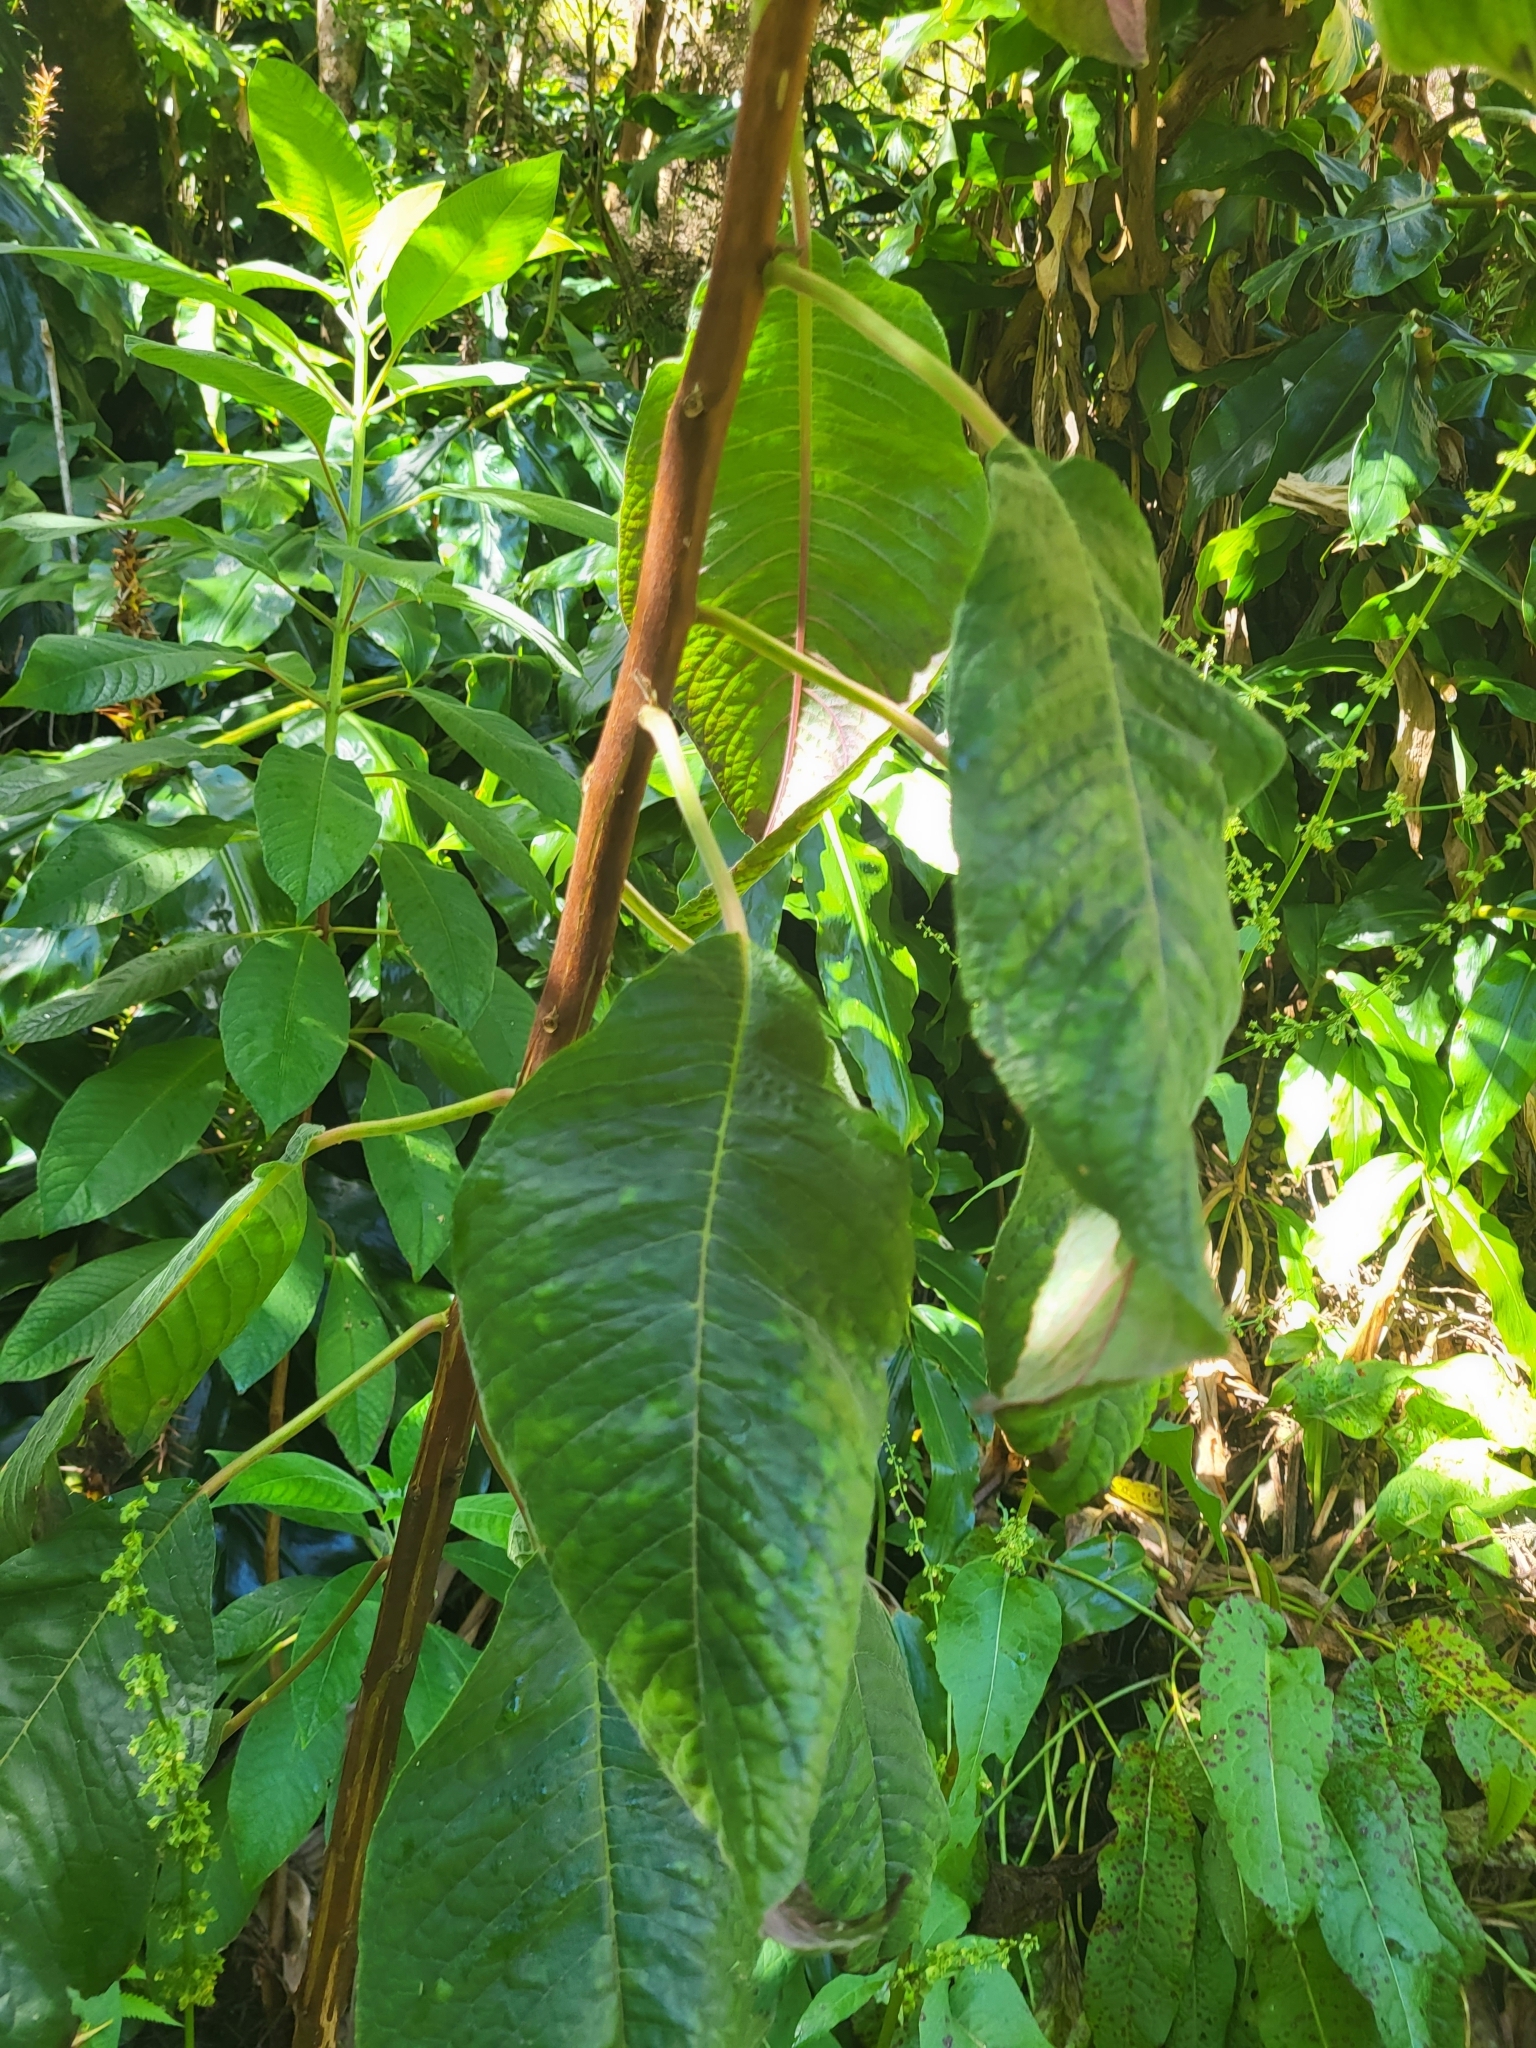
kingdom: Plantae
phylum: Tracheophyta
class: Magnoliopsida
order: Myrtales
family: Onagraceae
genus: Fuchsia
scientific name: Fuchsia boliviana
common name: Bolivian fuchsia
